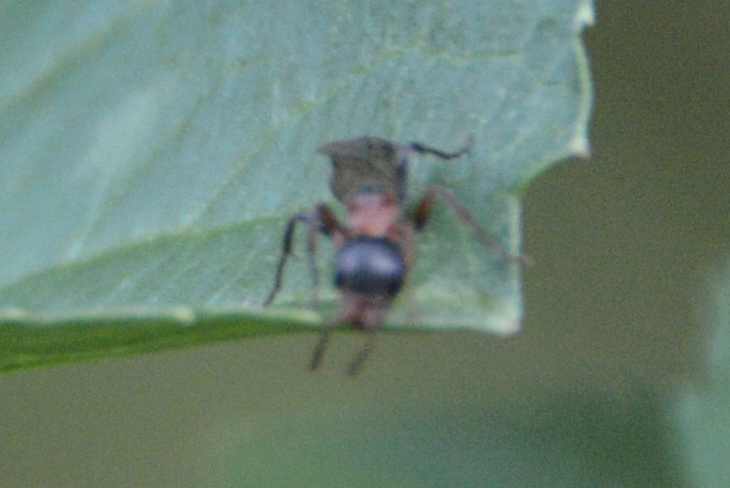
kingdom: Animalia
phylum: Arthropoda
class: Insecta
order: Hymenoptera
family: Formicidae
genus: Pseudomyrmex
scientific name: Pseudomyrmex gracilis
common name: Graceful twig ant
